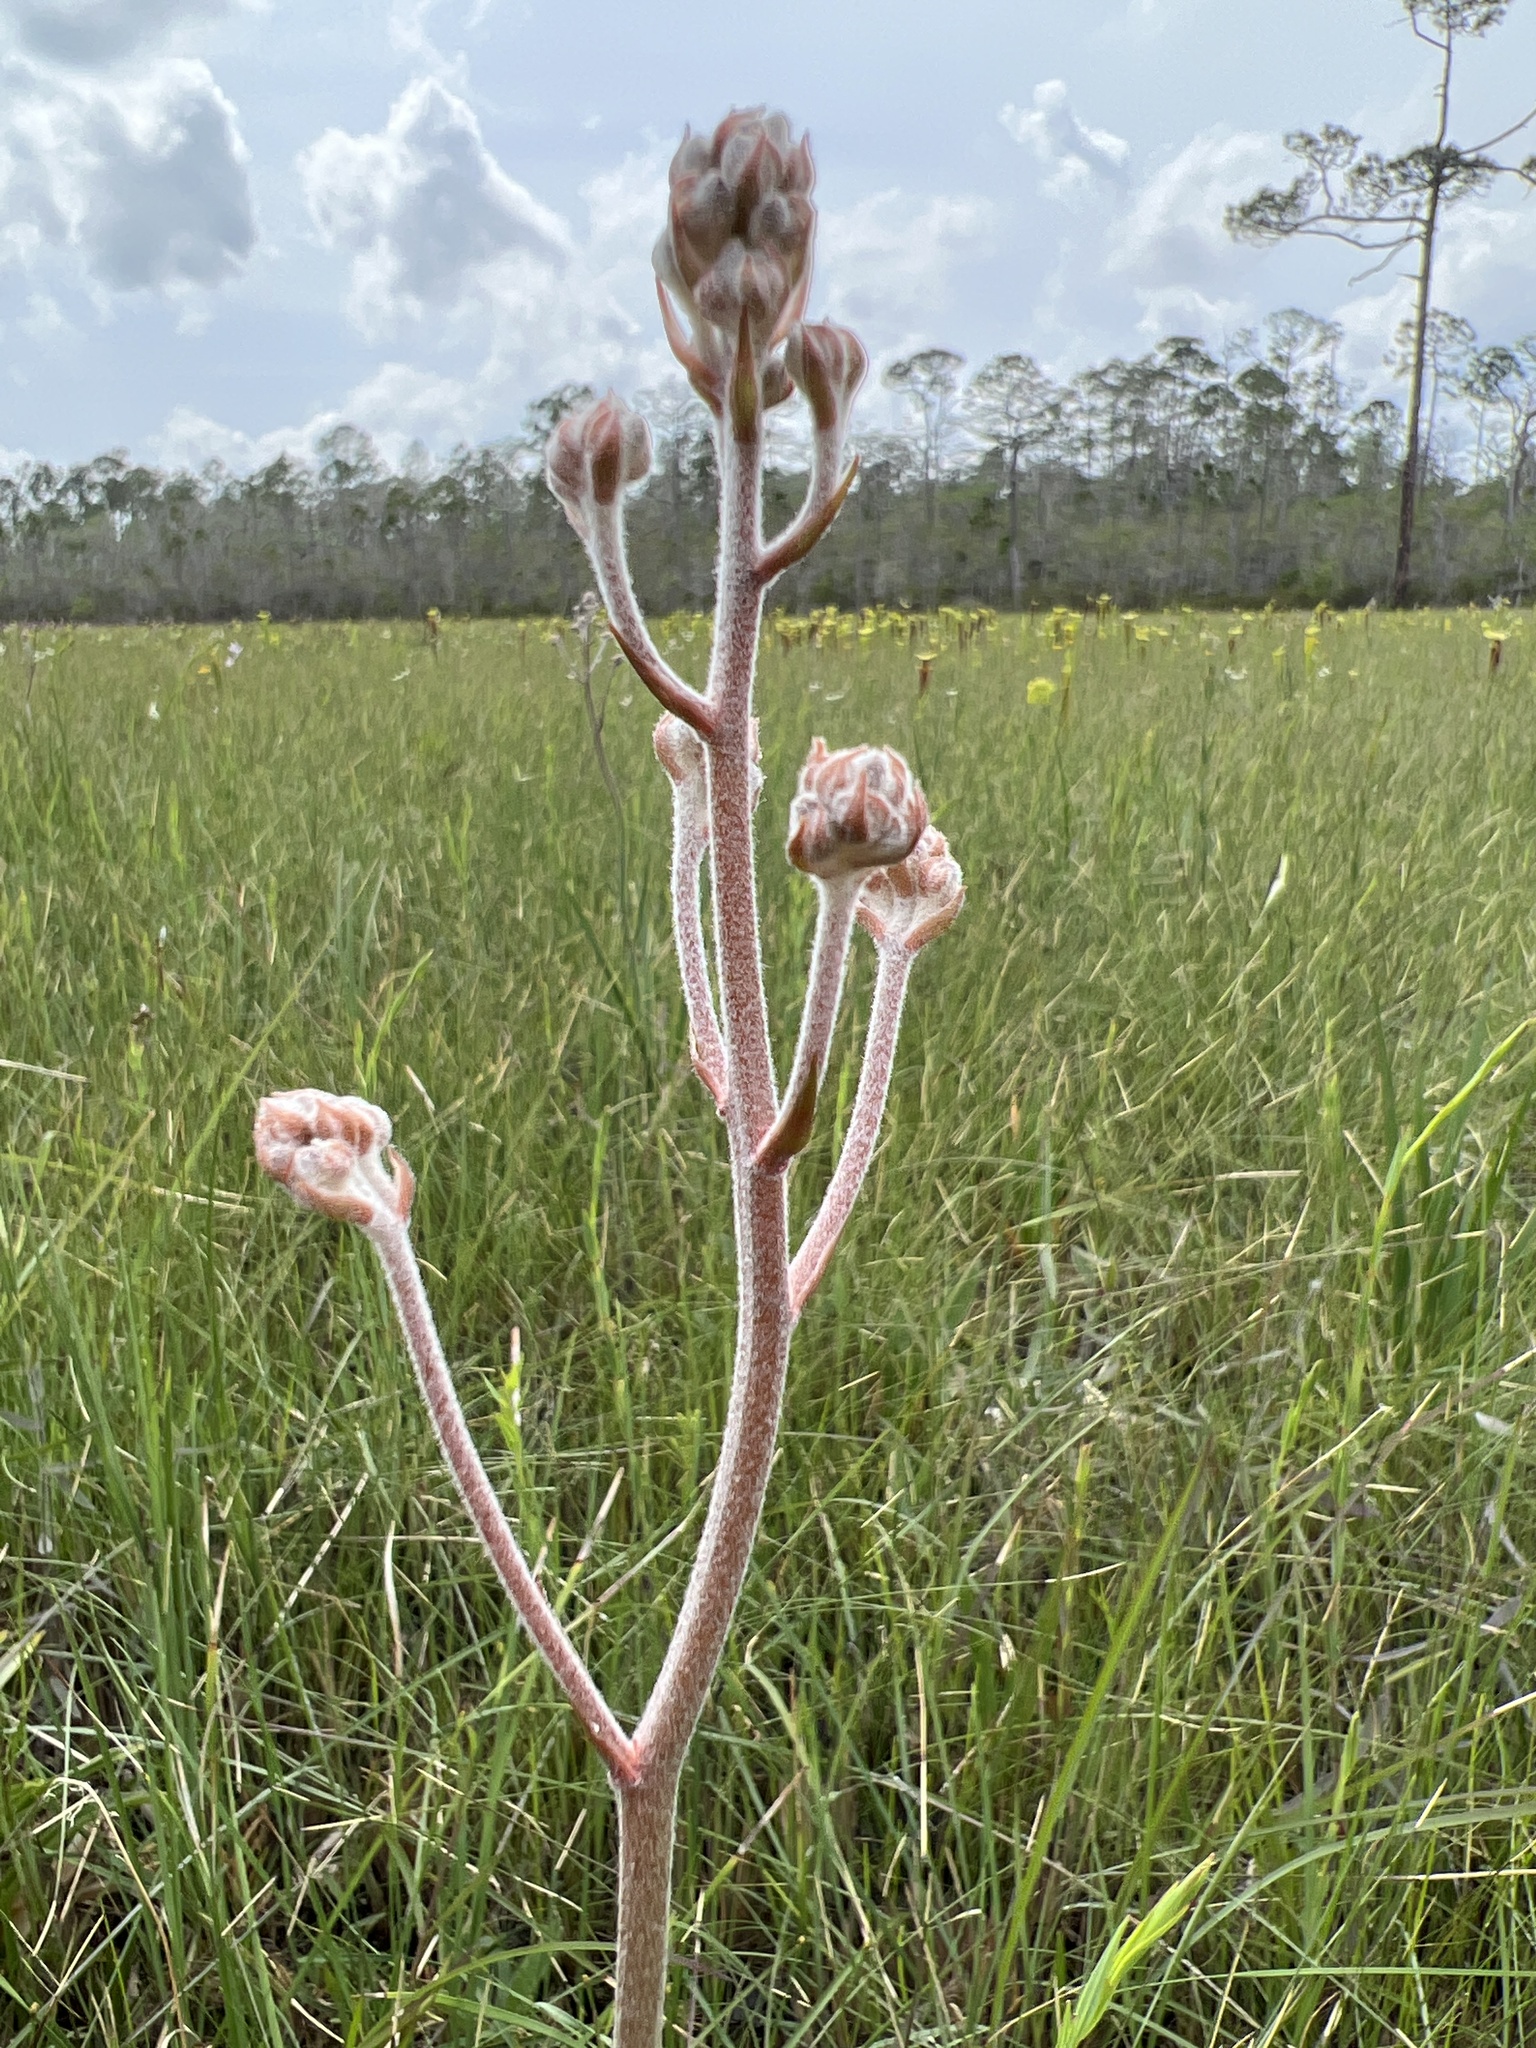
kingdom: Plantae
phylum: Tracheophyta
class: Liliopsida
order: Commelinales
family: Haemodoraceae
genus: Lachnanthes
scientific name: Lachnanthes caroliana
